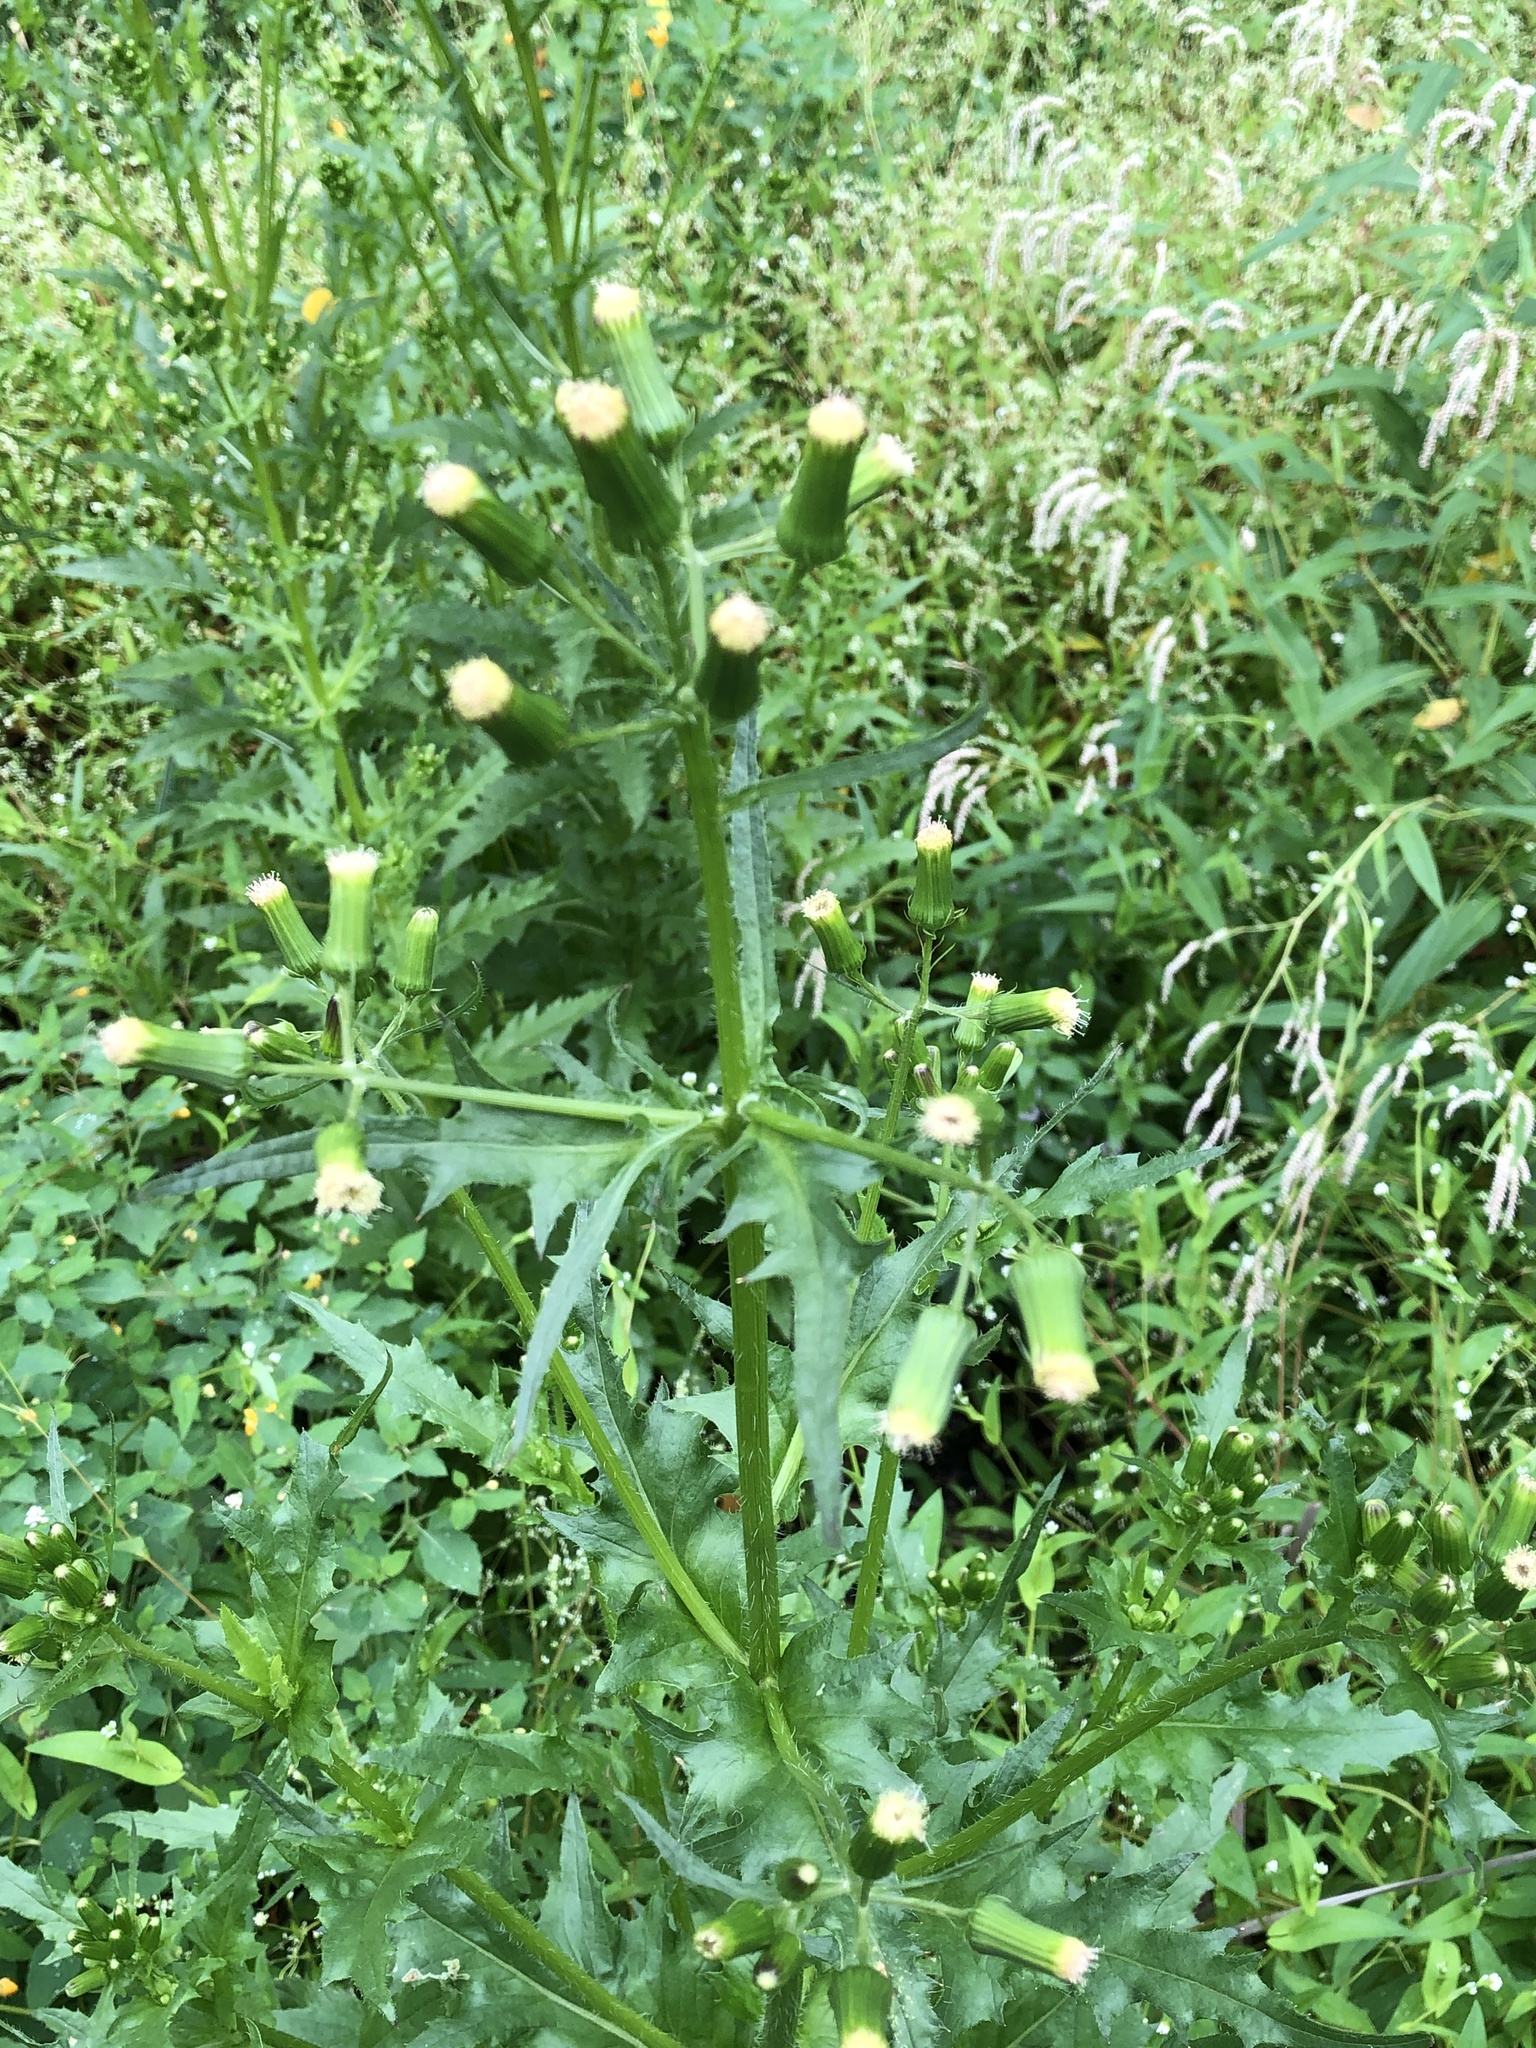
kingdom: Plantae
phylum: Tracheophyta
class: Magnoliopsida
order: Asterales
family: Asteraceae
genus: Erechtites
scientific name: Erechtites hieraciifolius
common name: American burnweed
